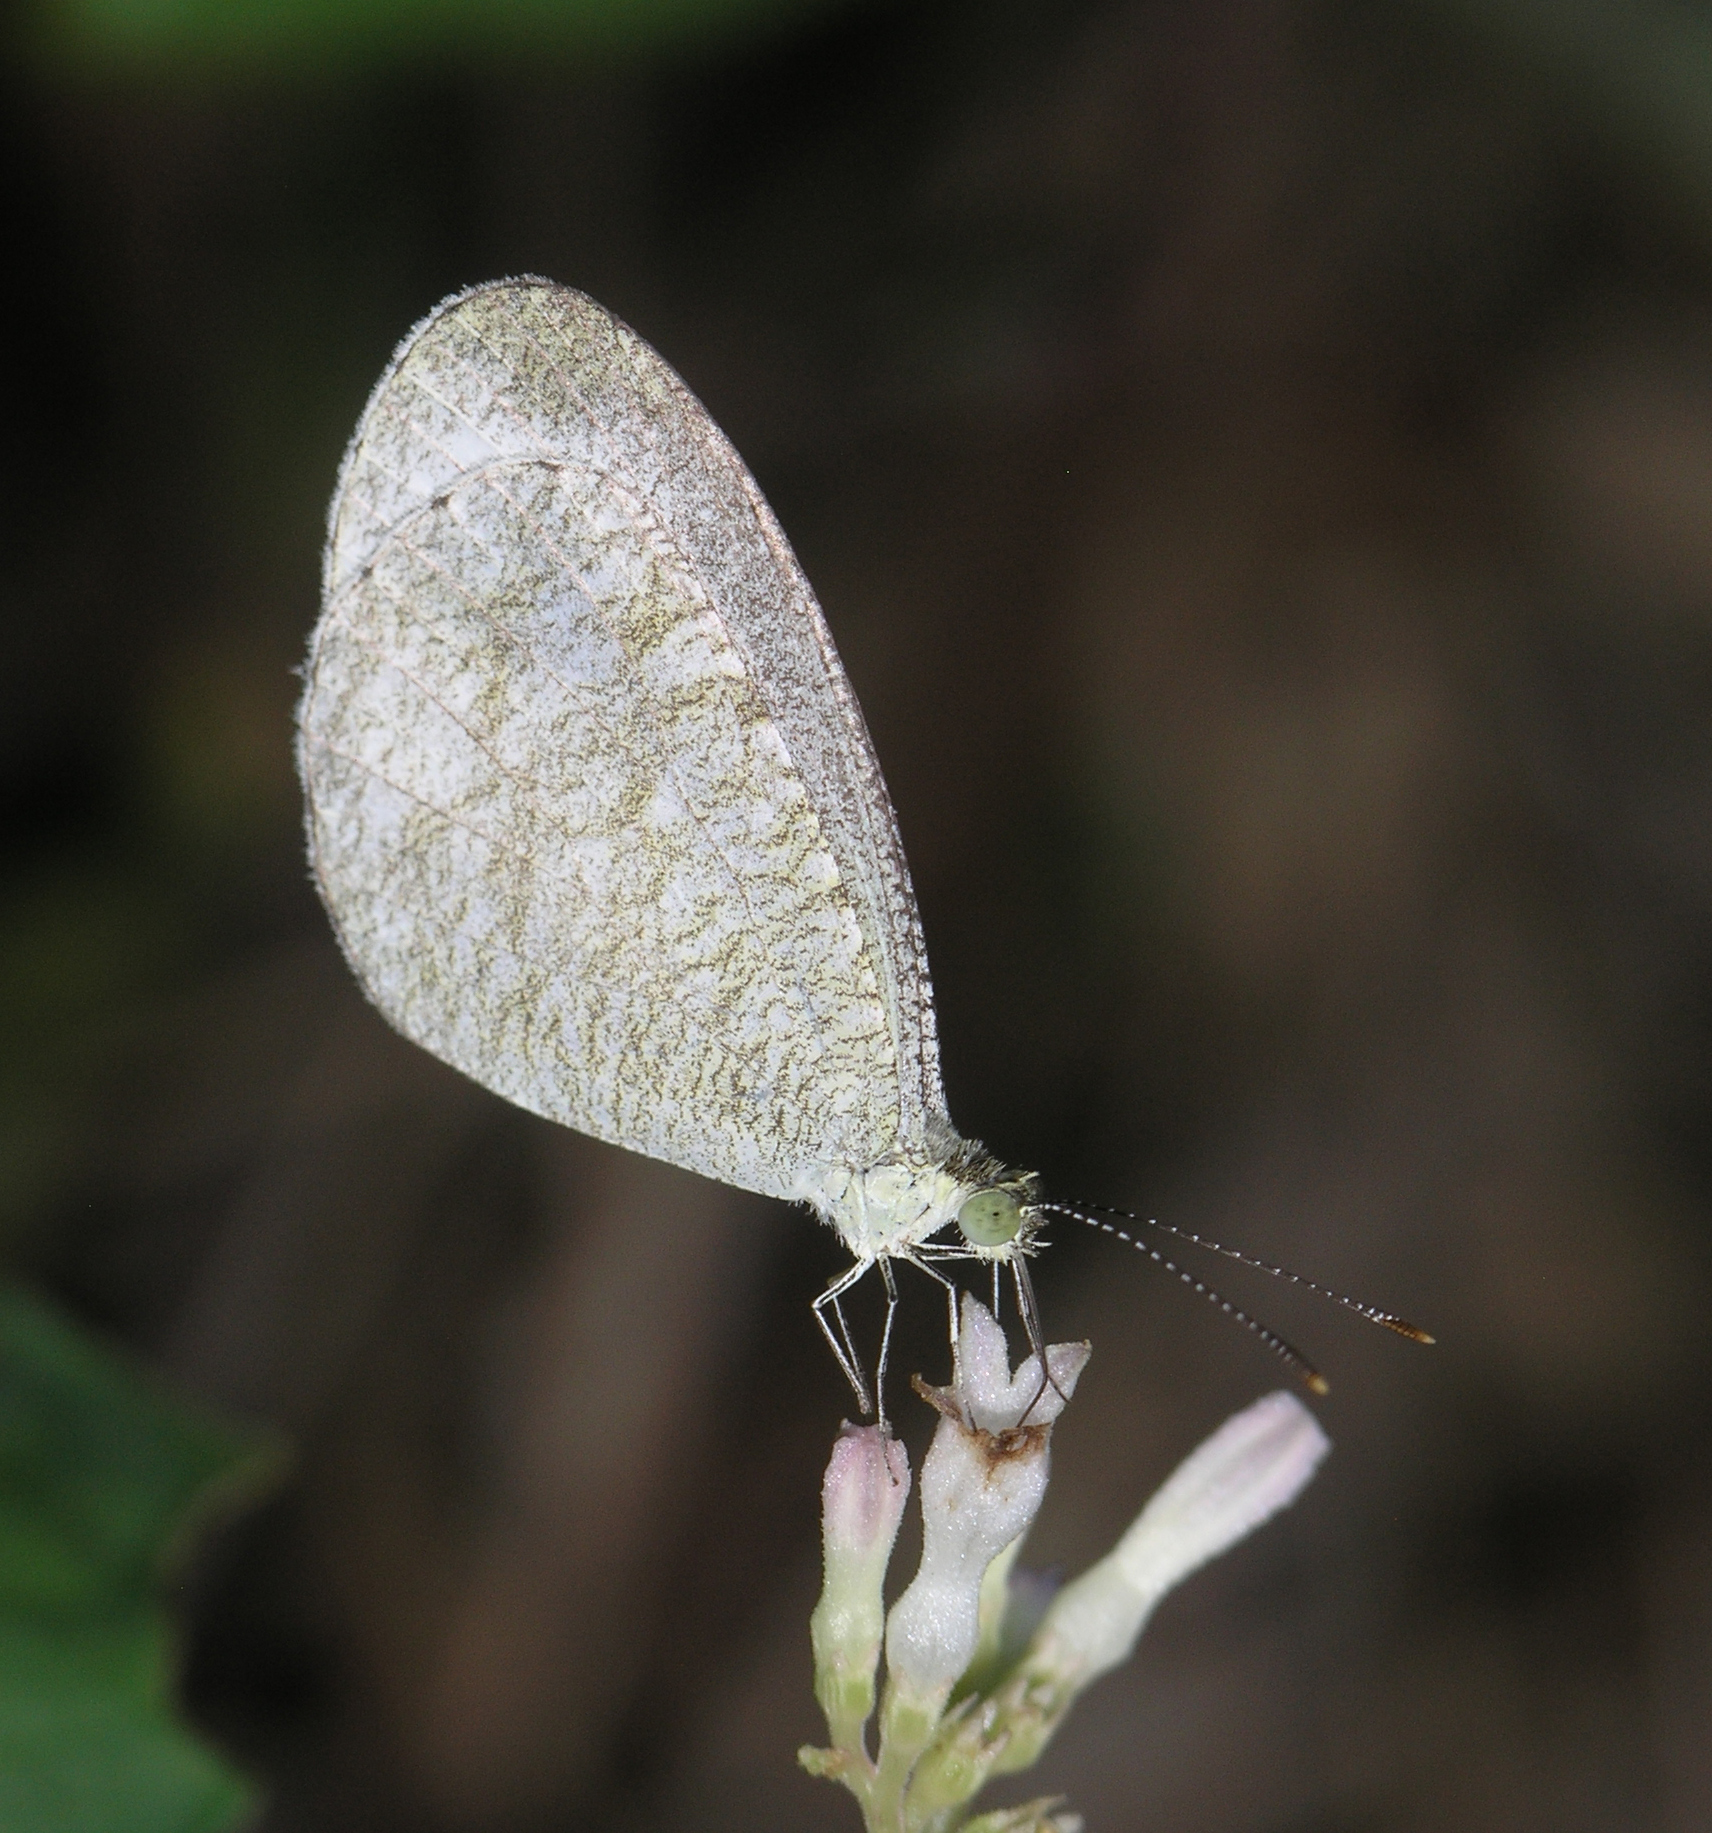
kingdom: Animalia
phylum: Arthropoda
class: Insecta
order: Lepidoptera
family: Pieridae
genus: Leptosia
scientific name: Leptosia nina
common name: Psyche
